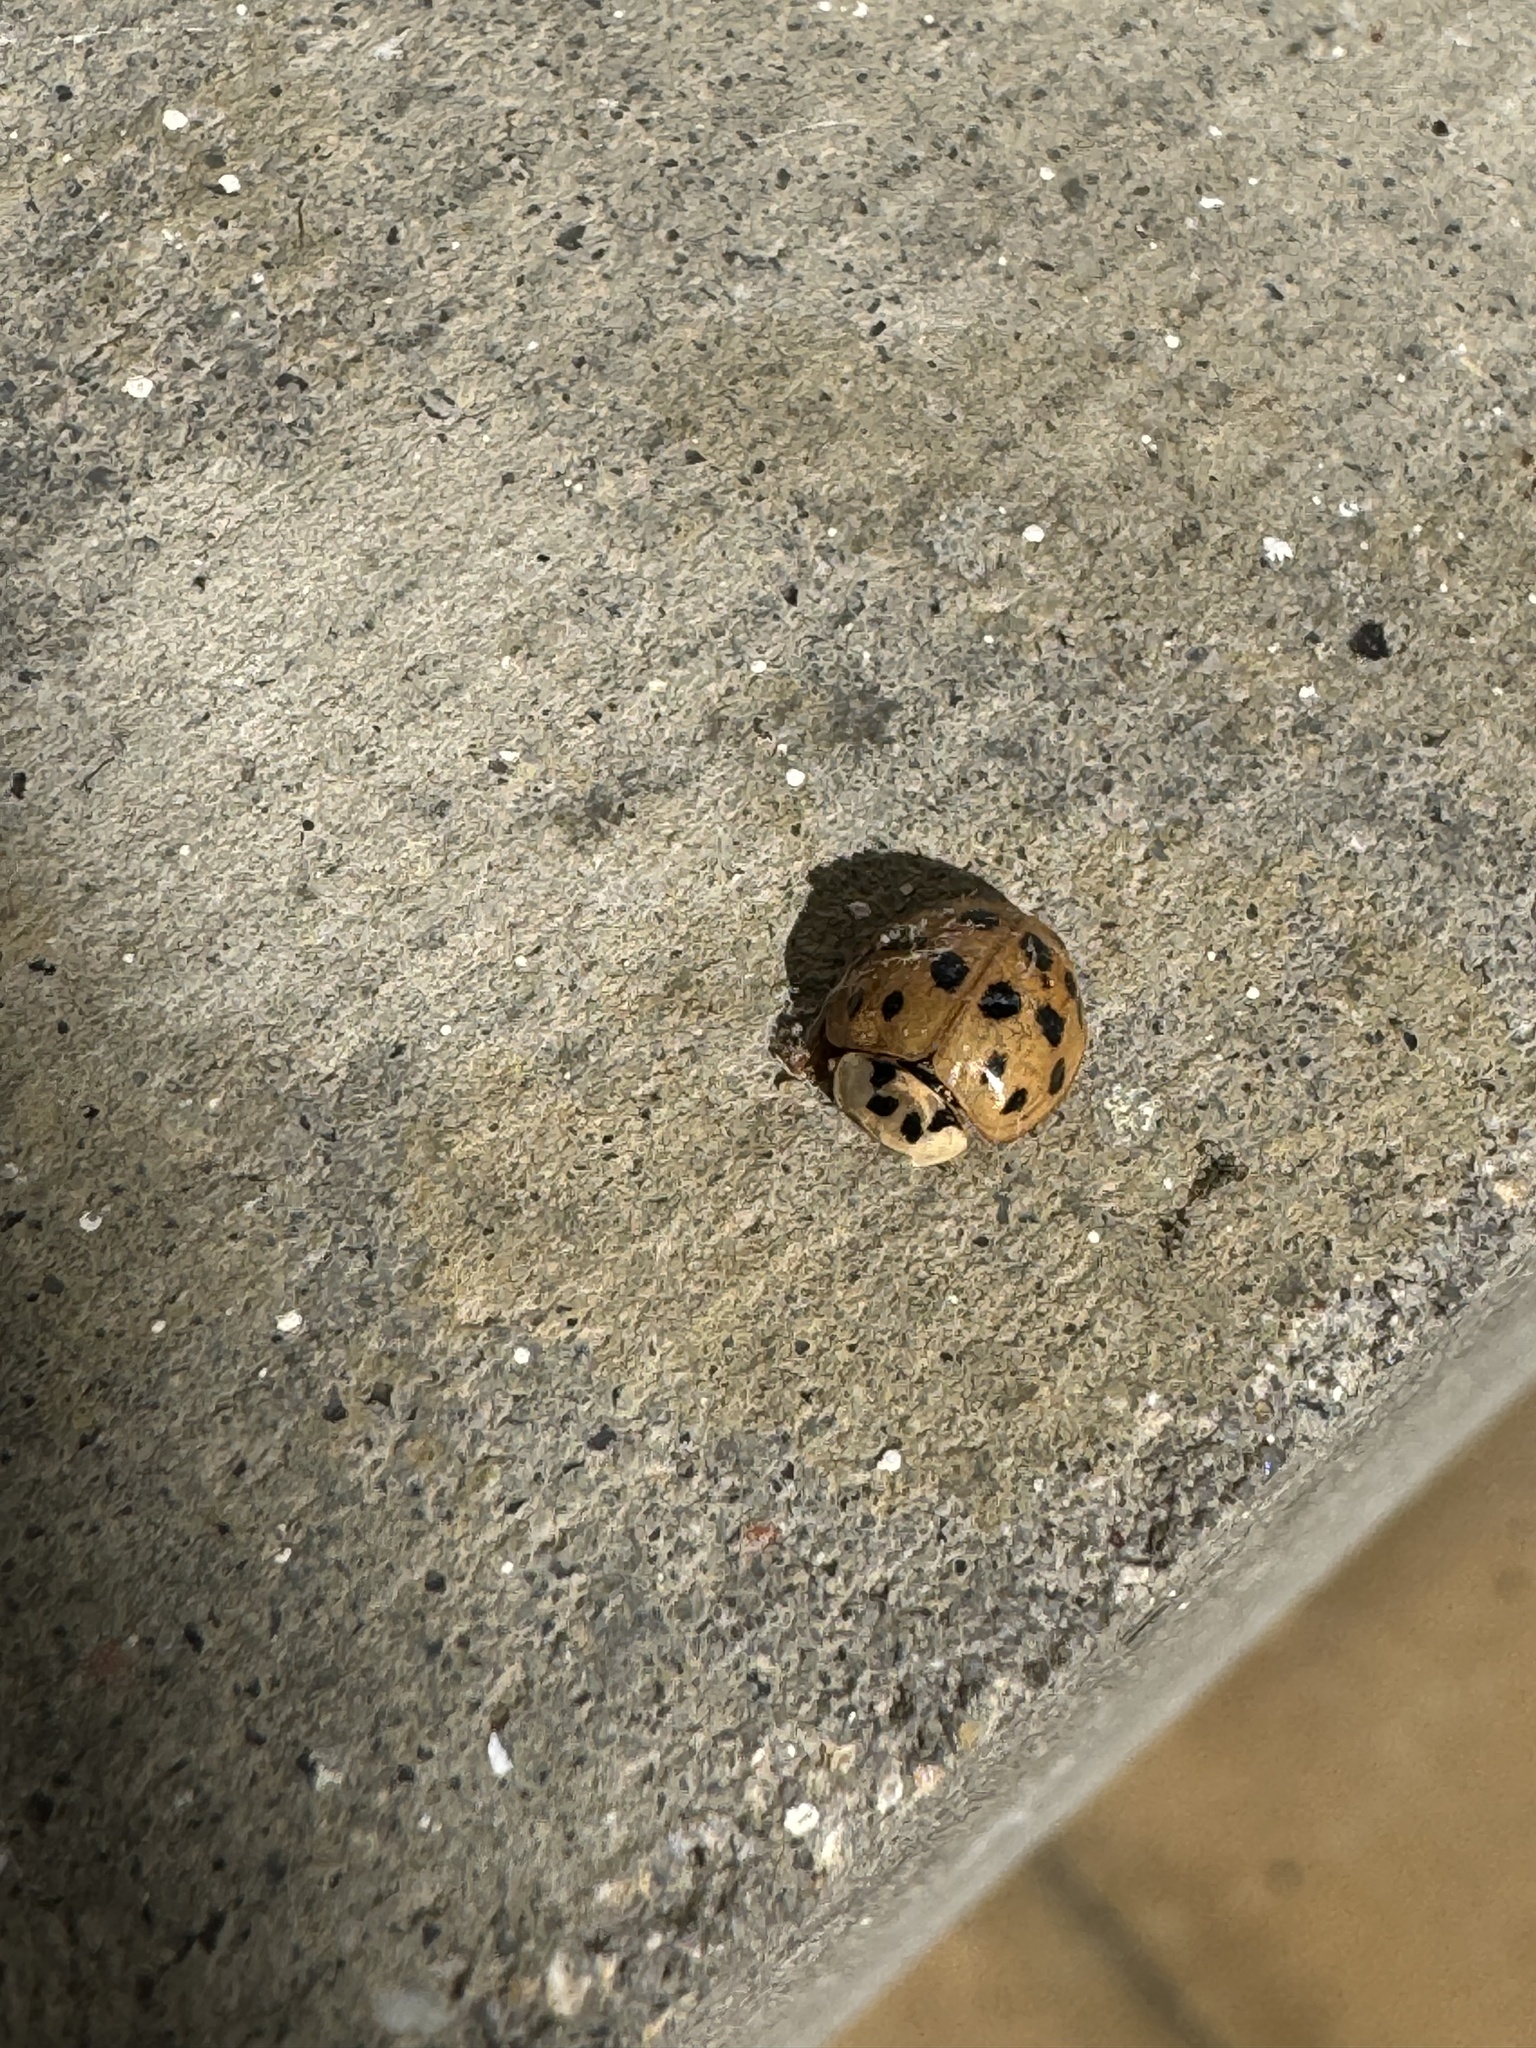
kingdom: Animalia
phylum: Arthropoda
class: Insecta
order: Coleoptera
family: Coccinellidae
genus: Harmonia
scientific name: Harmonia axyridis
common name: Harlequin ladybird
